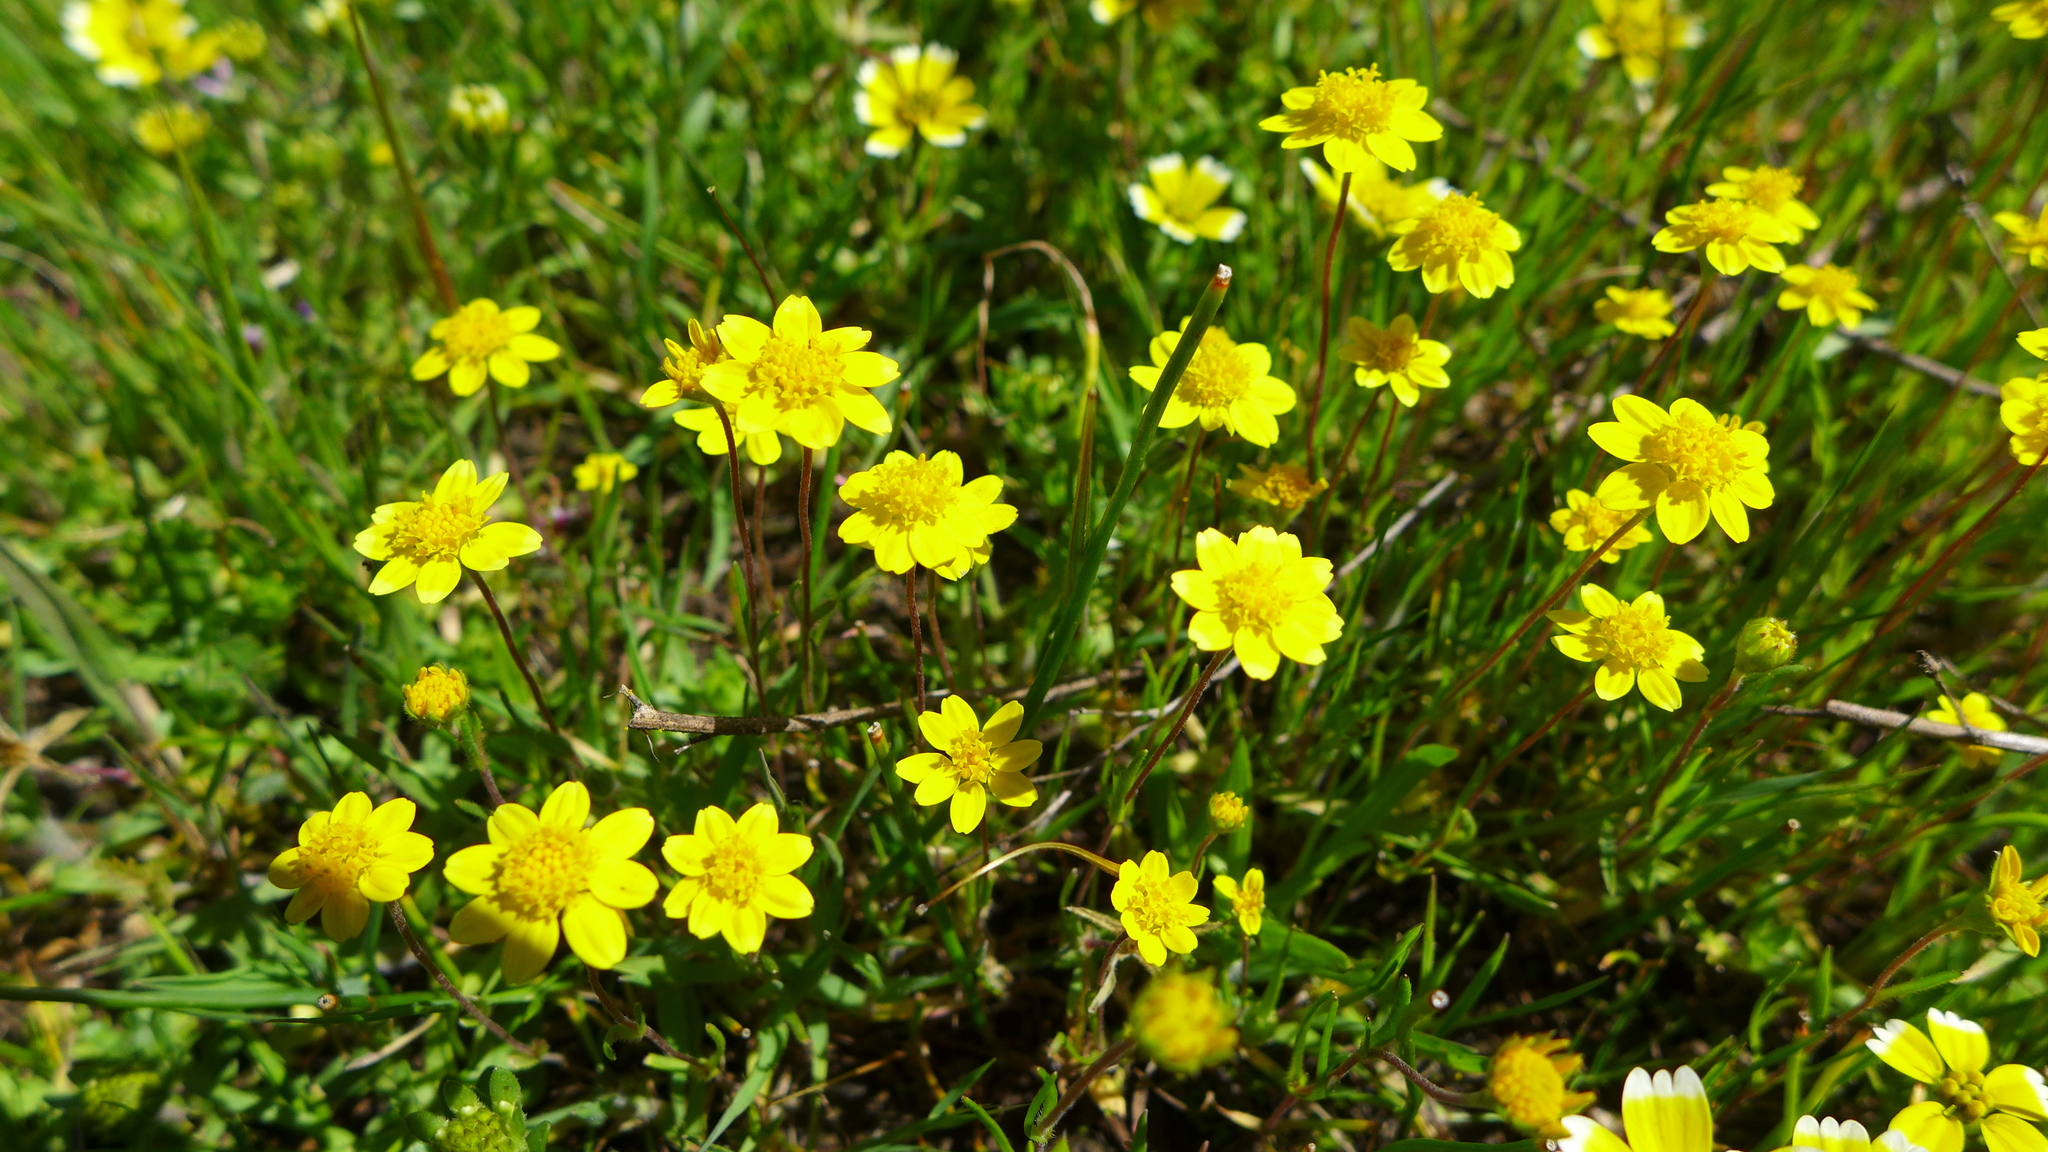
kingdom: Plantae
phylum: Tracheophyta
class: Magnoliopsida
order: Asterales
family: Asteraceae
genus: Lasthenia
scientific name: Lasthenia gracilis
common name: Common goldfields
